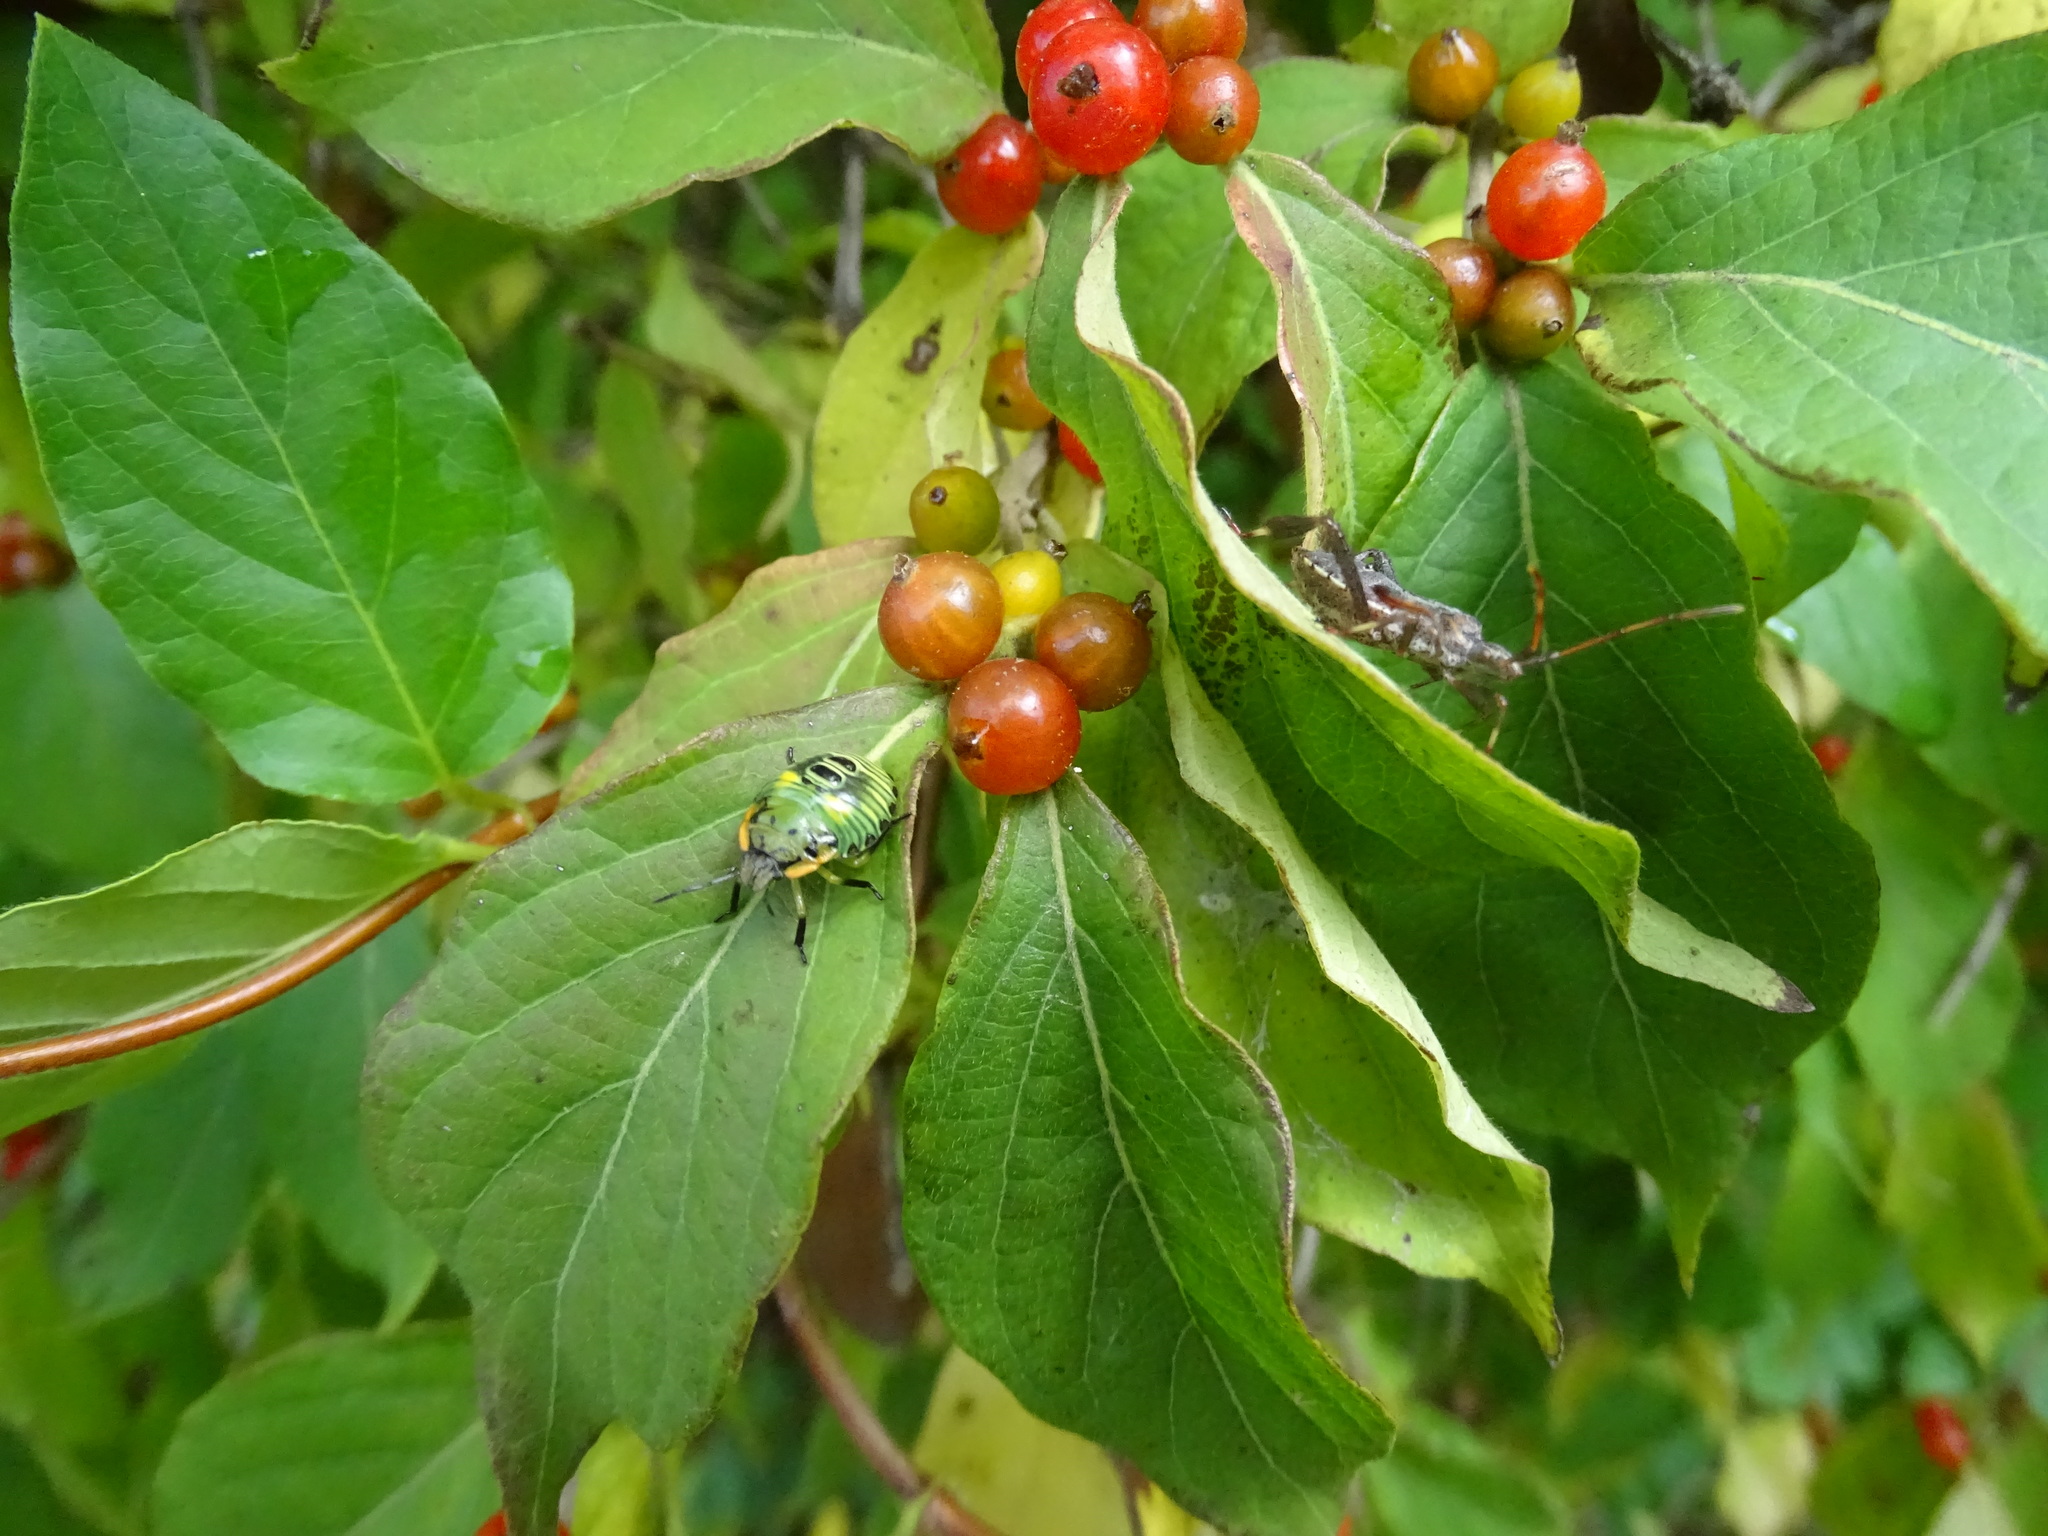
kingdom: Animalia
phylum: Arthropoda
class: Insecta
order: Hemiptera
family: Pentatomidae
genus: Chinavia
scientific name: Chinavia hilaris
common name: Green stink bug
